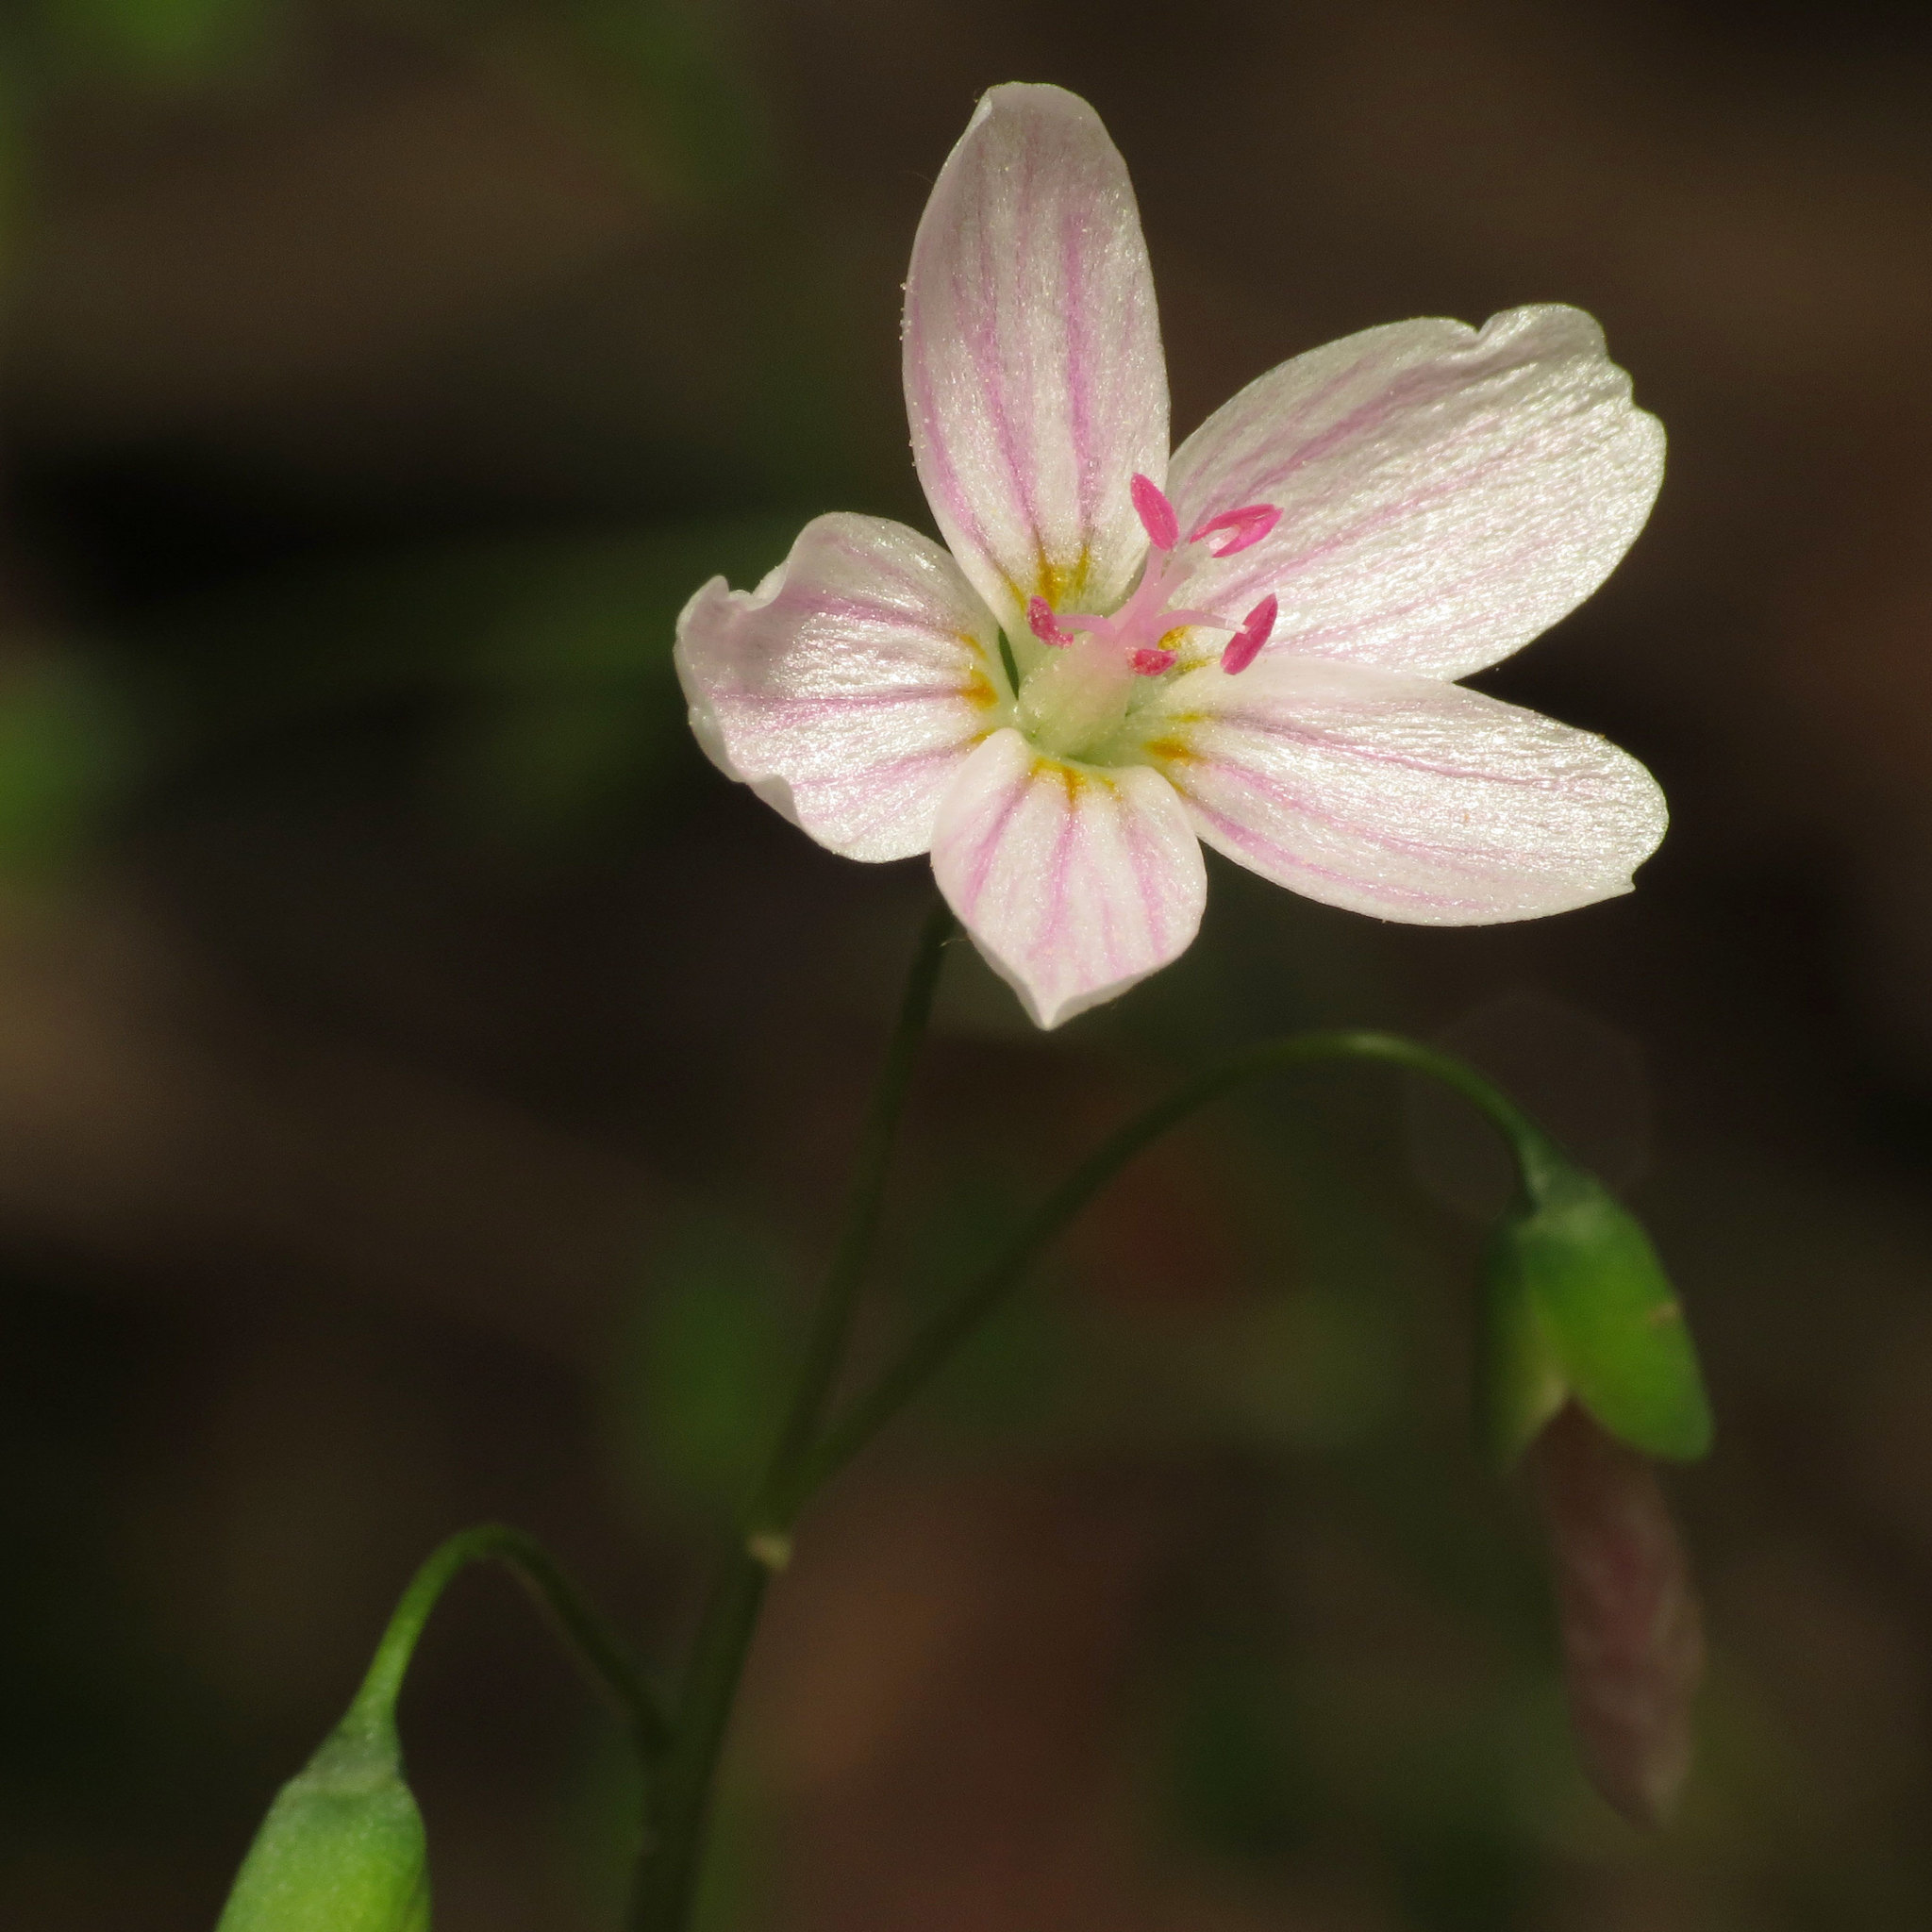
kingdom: Plantae
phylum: Tracheophyta
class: Magnoliopsida
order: Caryophyllales
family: Montiaceae
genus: Claytonia
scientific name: Claytonia virginica
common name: Virginia springbeauty
